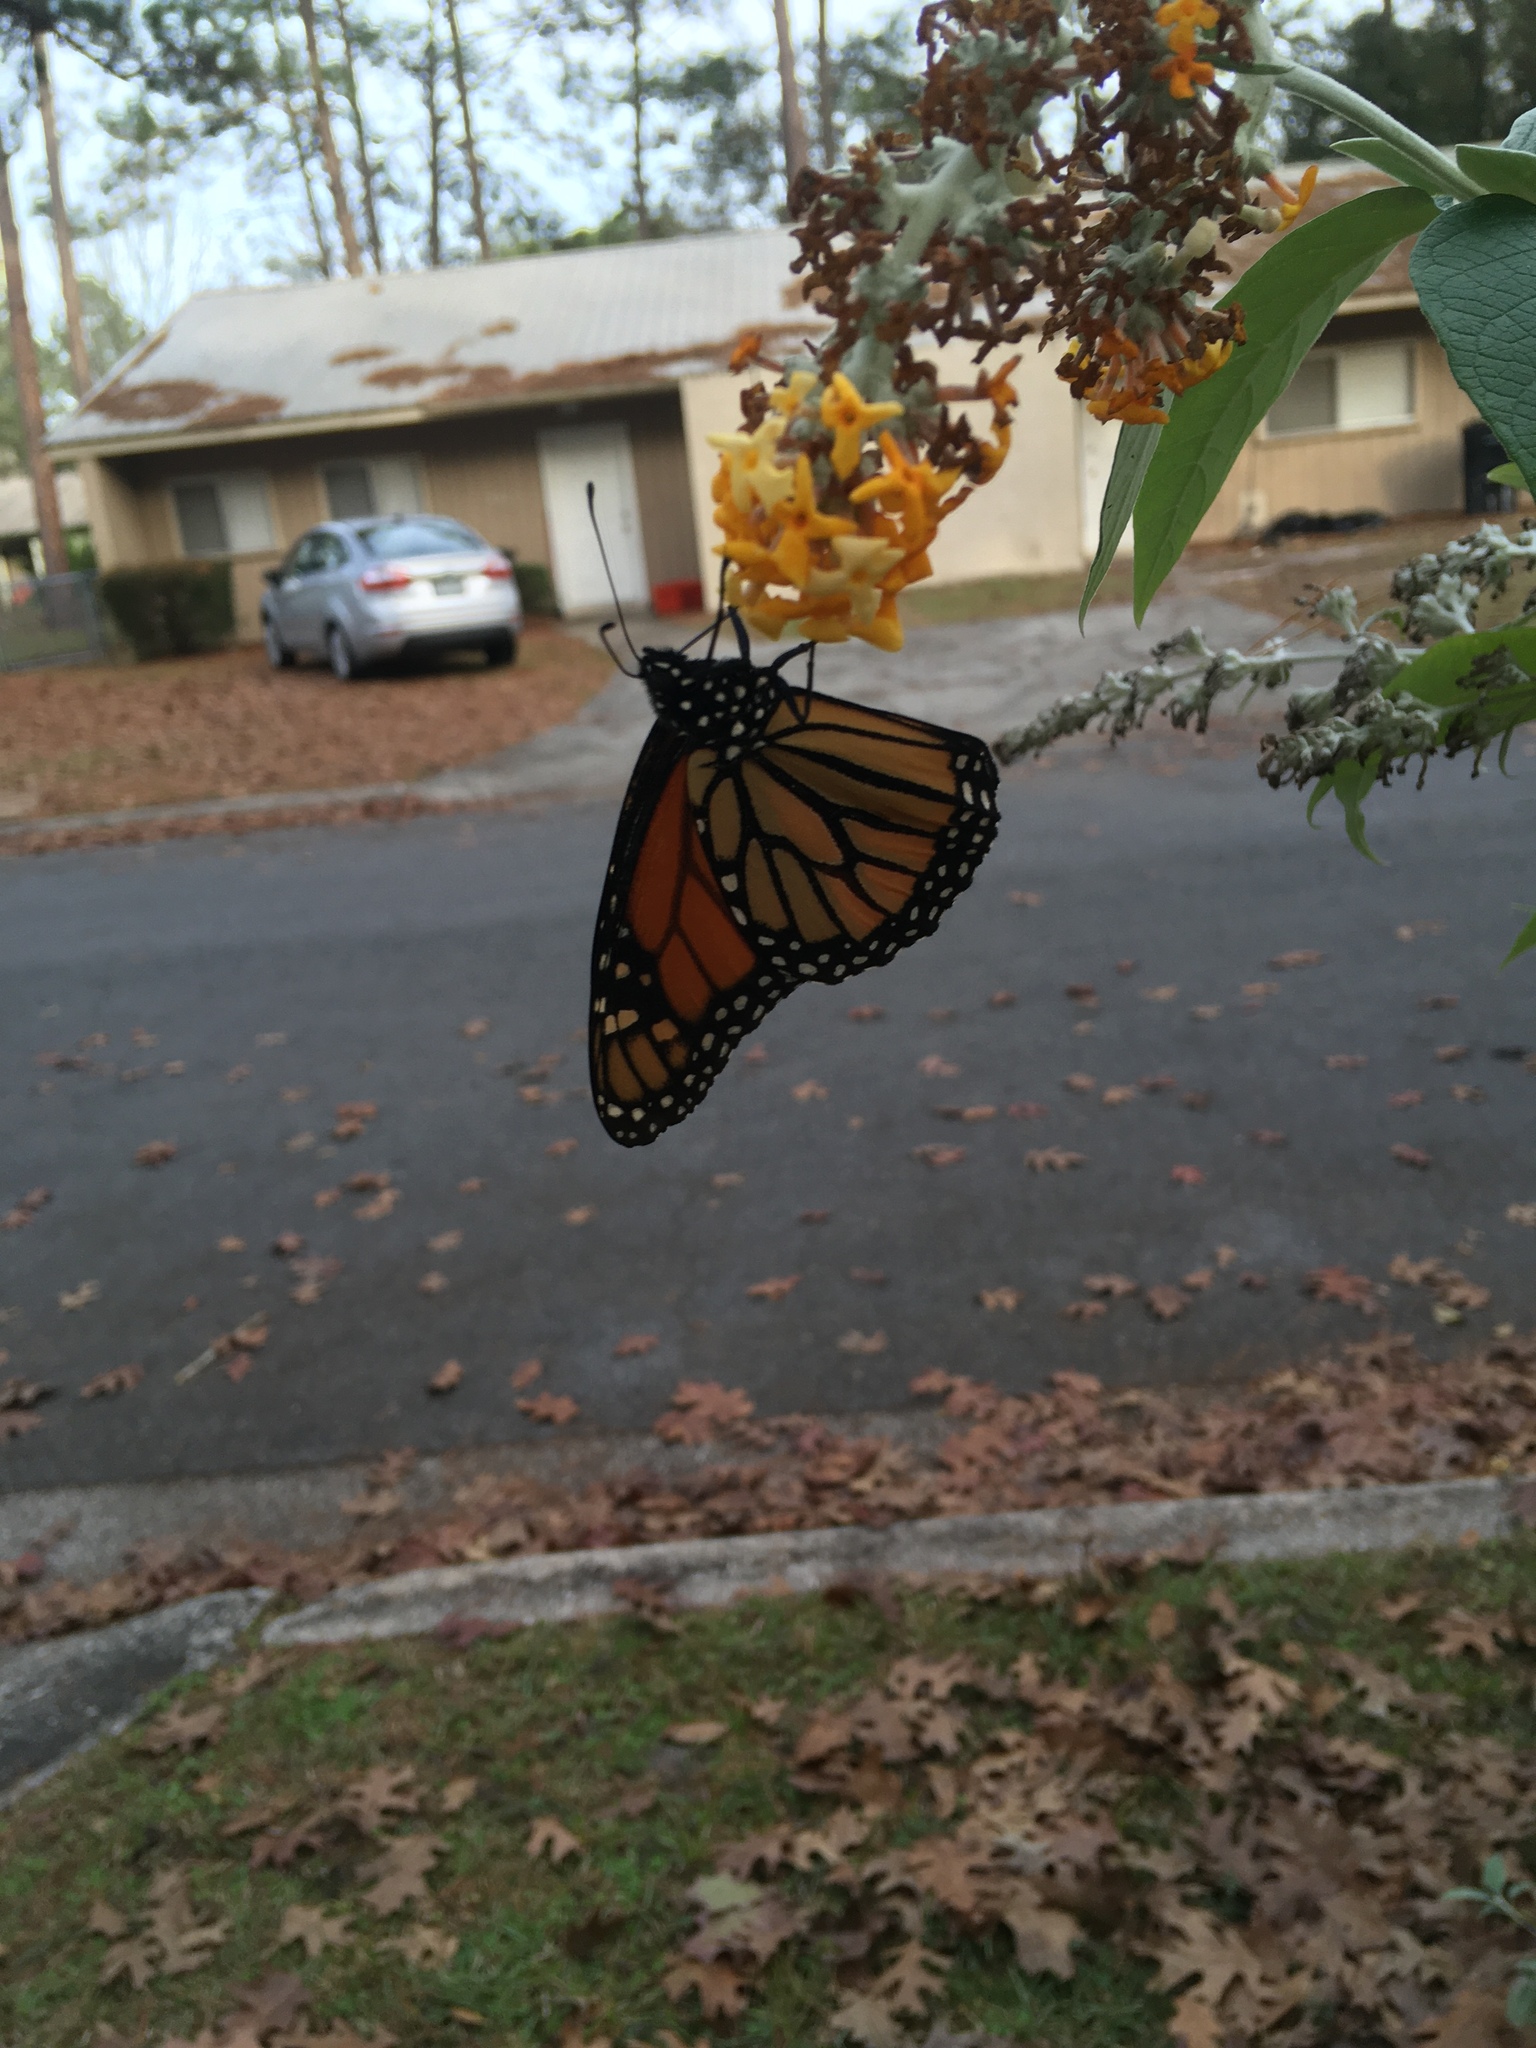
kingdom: Animalia
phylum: Arthropoda
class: Insecta
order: Lepidoptera
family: Nymphalidae
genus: Danaus
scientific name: Danaus plexippus
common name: Monarch
